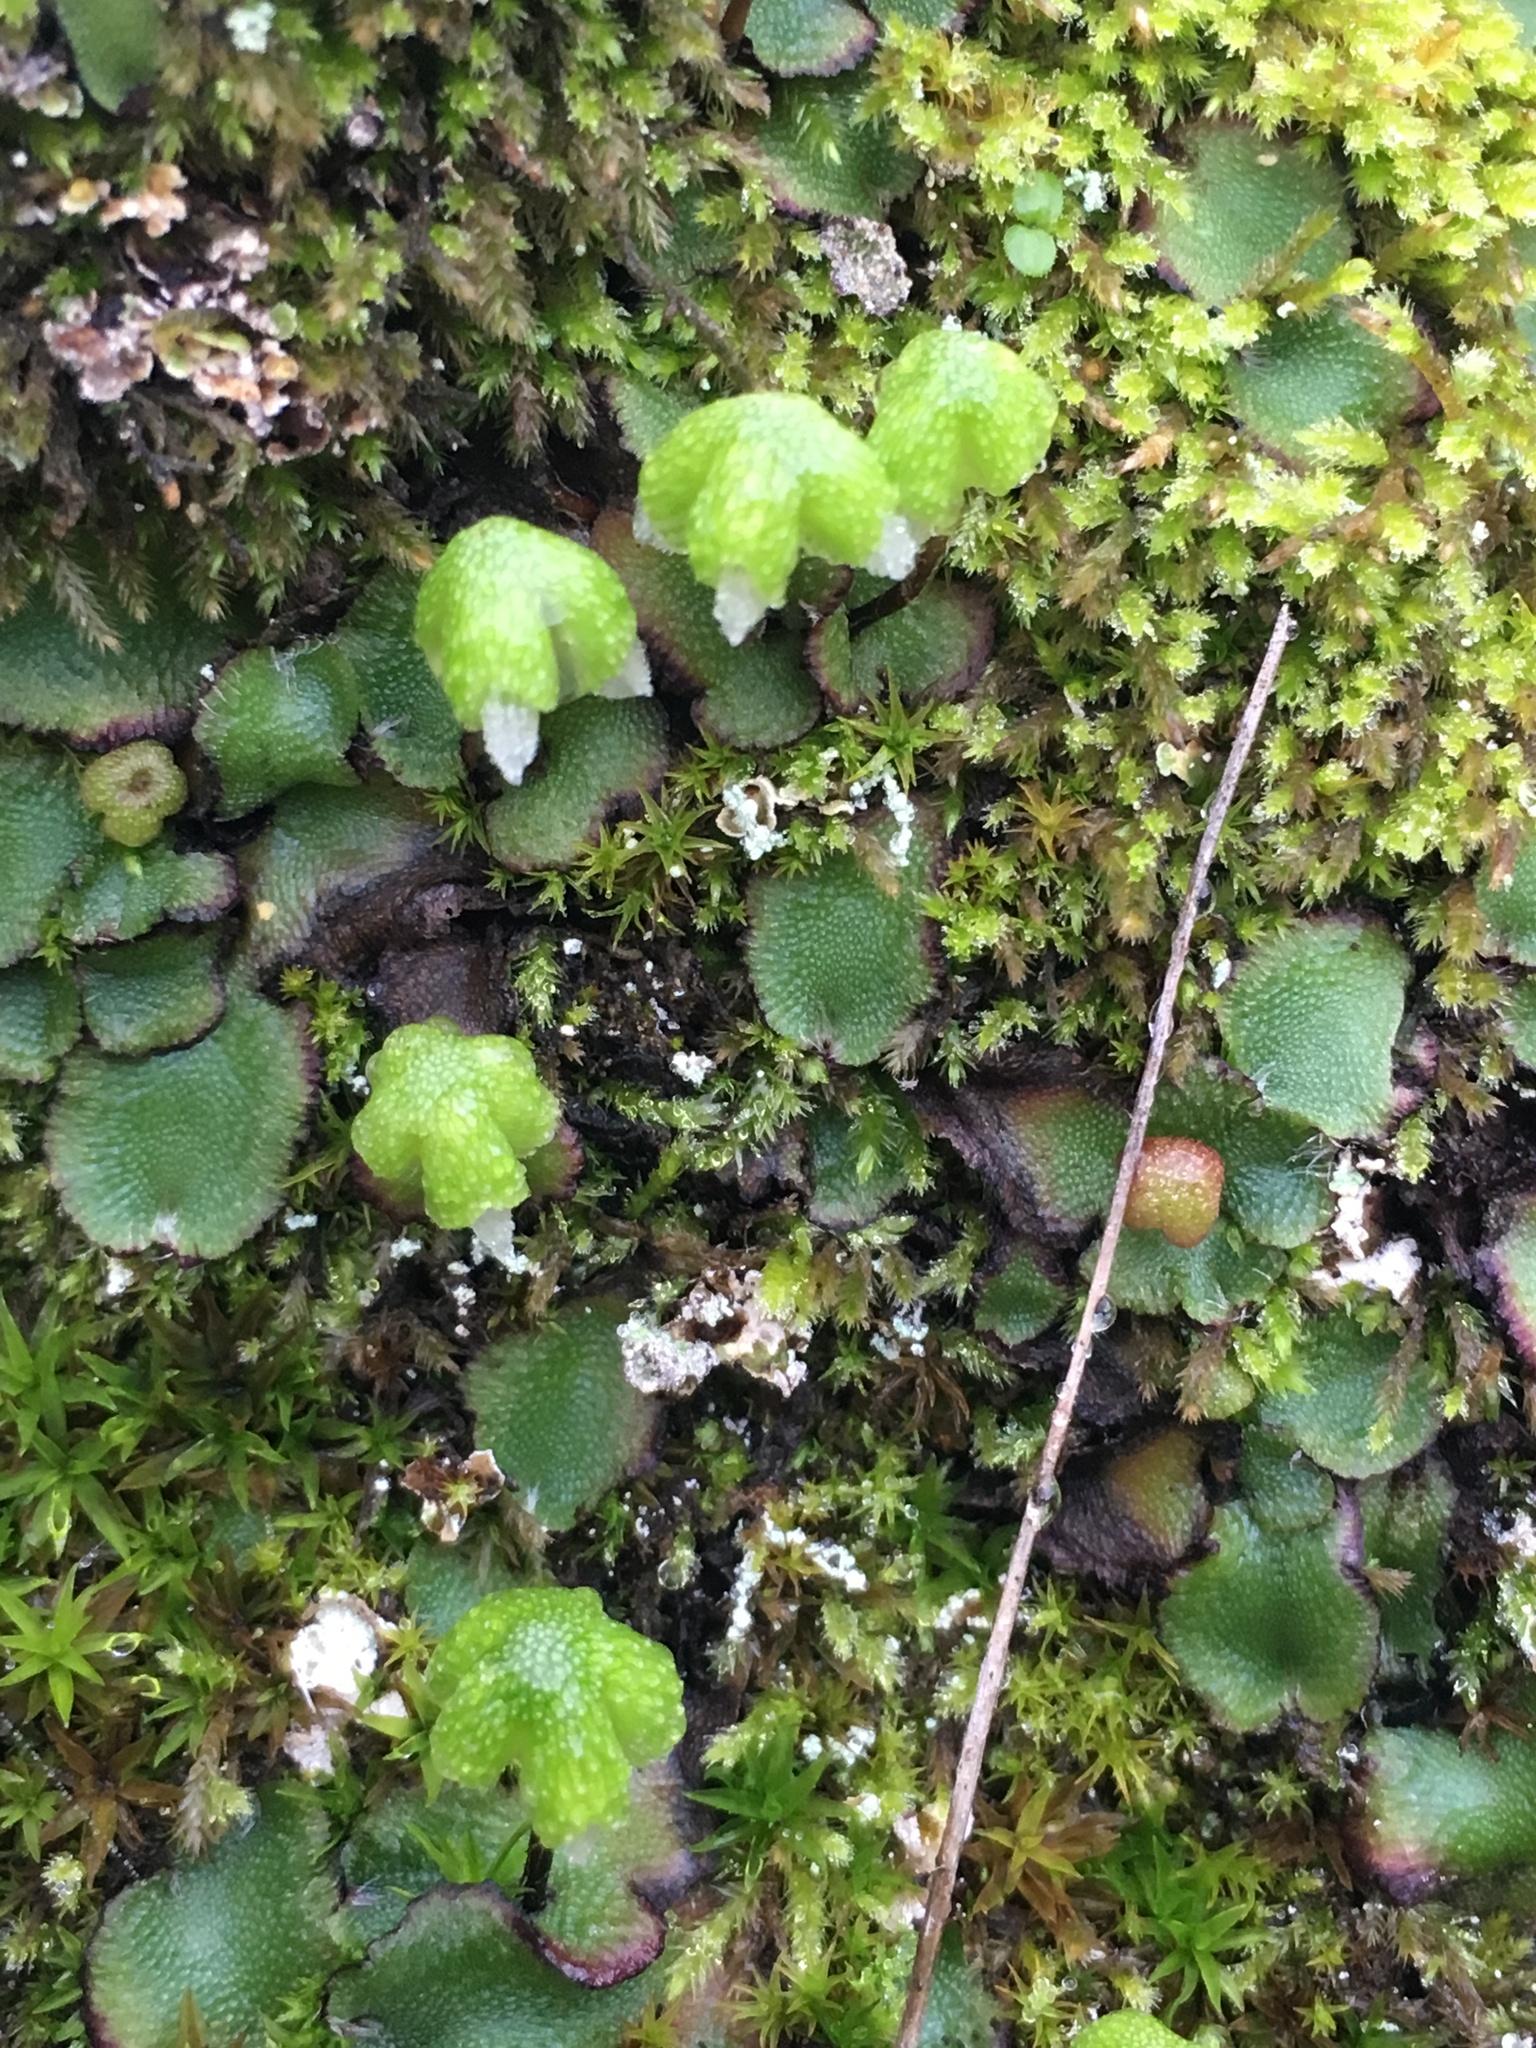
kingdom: Plantae
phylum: Marchantiophyta
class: Marchantiopsida
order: Marchantiales
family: Aytoniaceae
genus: Asterella
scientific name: Asterella californica
